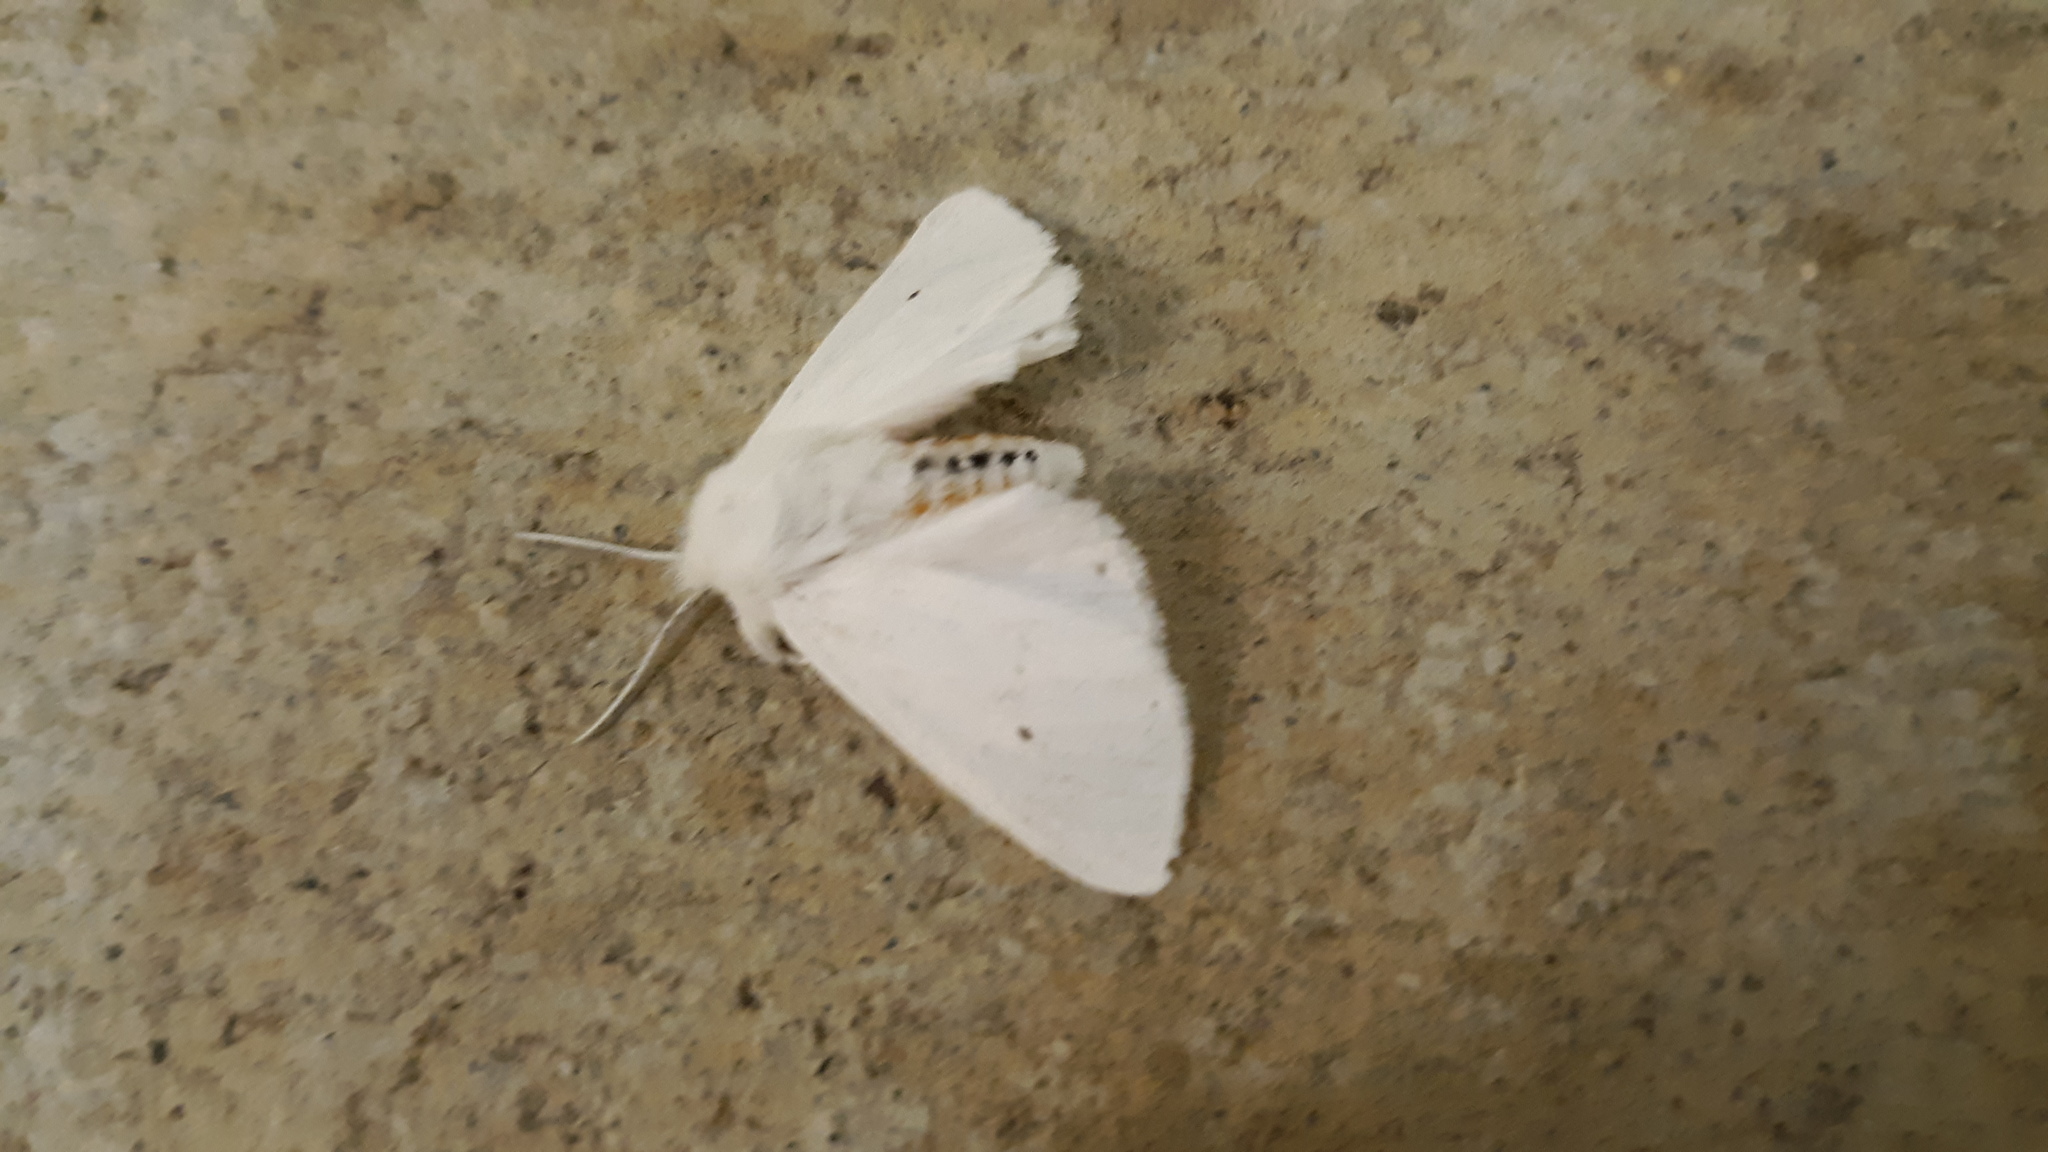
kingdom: Animalia
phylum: Arthropoda
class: Insecta
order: Lepidoptera
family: Erebidae
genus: Spilosoma
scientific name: Spilosoma virginica
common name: Virginia tiger moth
